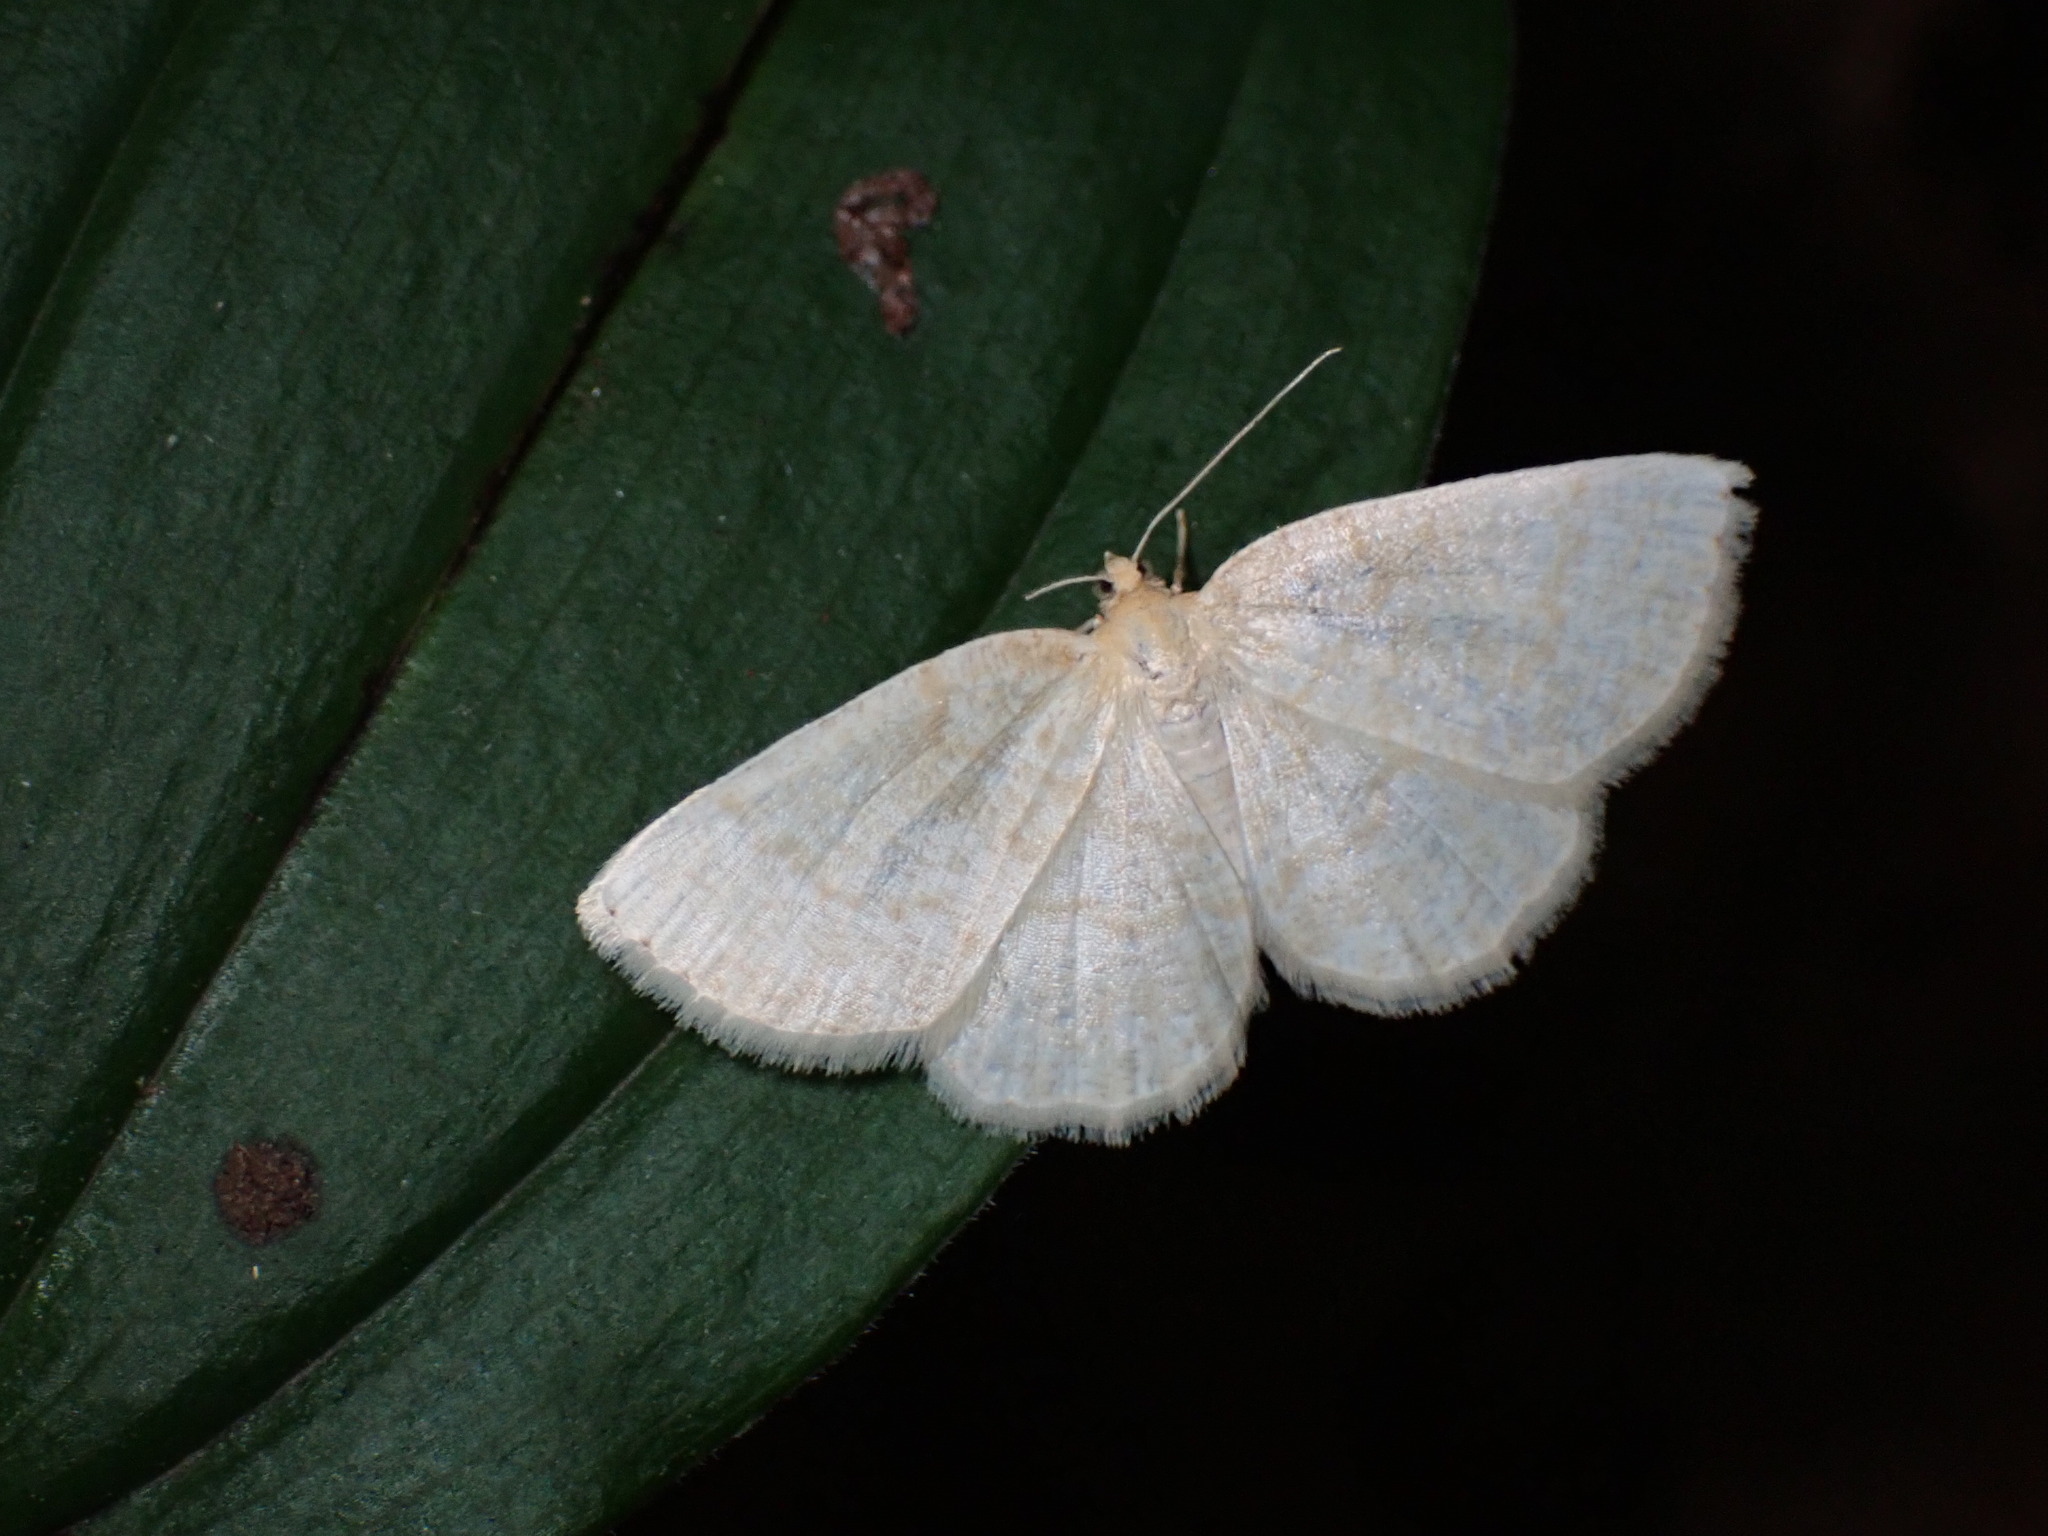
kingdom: Animalia
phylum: Arthropoda
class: Insecta
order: Lepidoptera
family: Geometridae
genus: Gueneria
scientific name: Gueneria similaria
